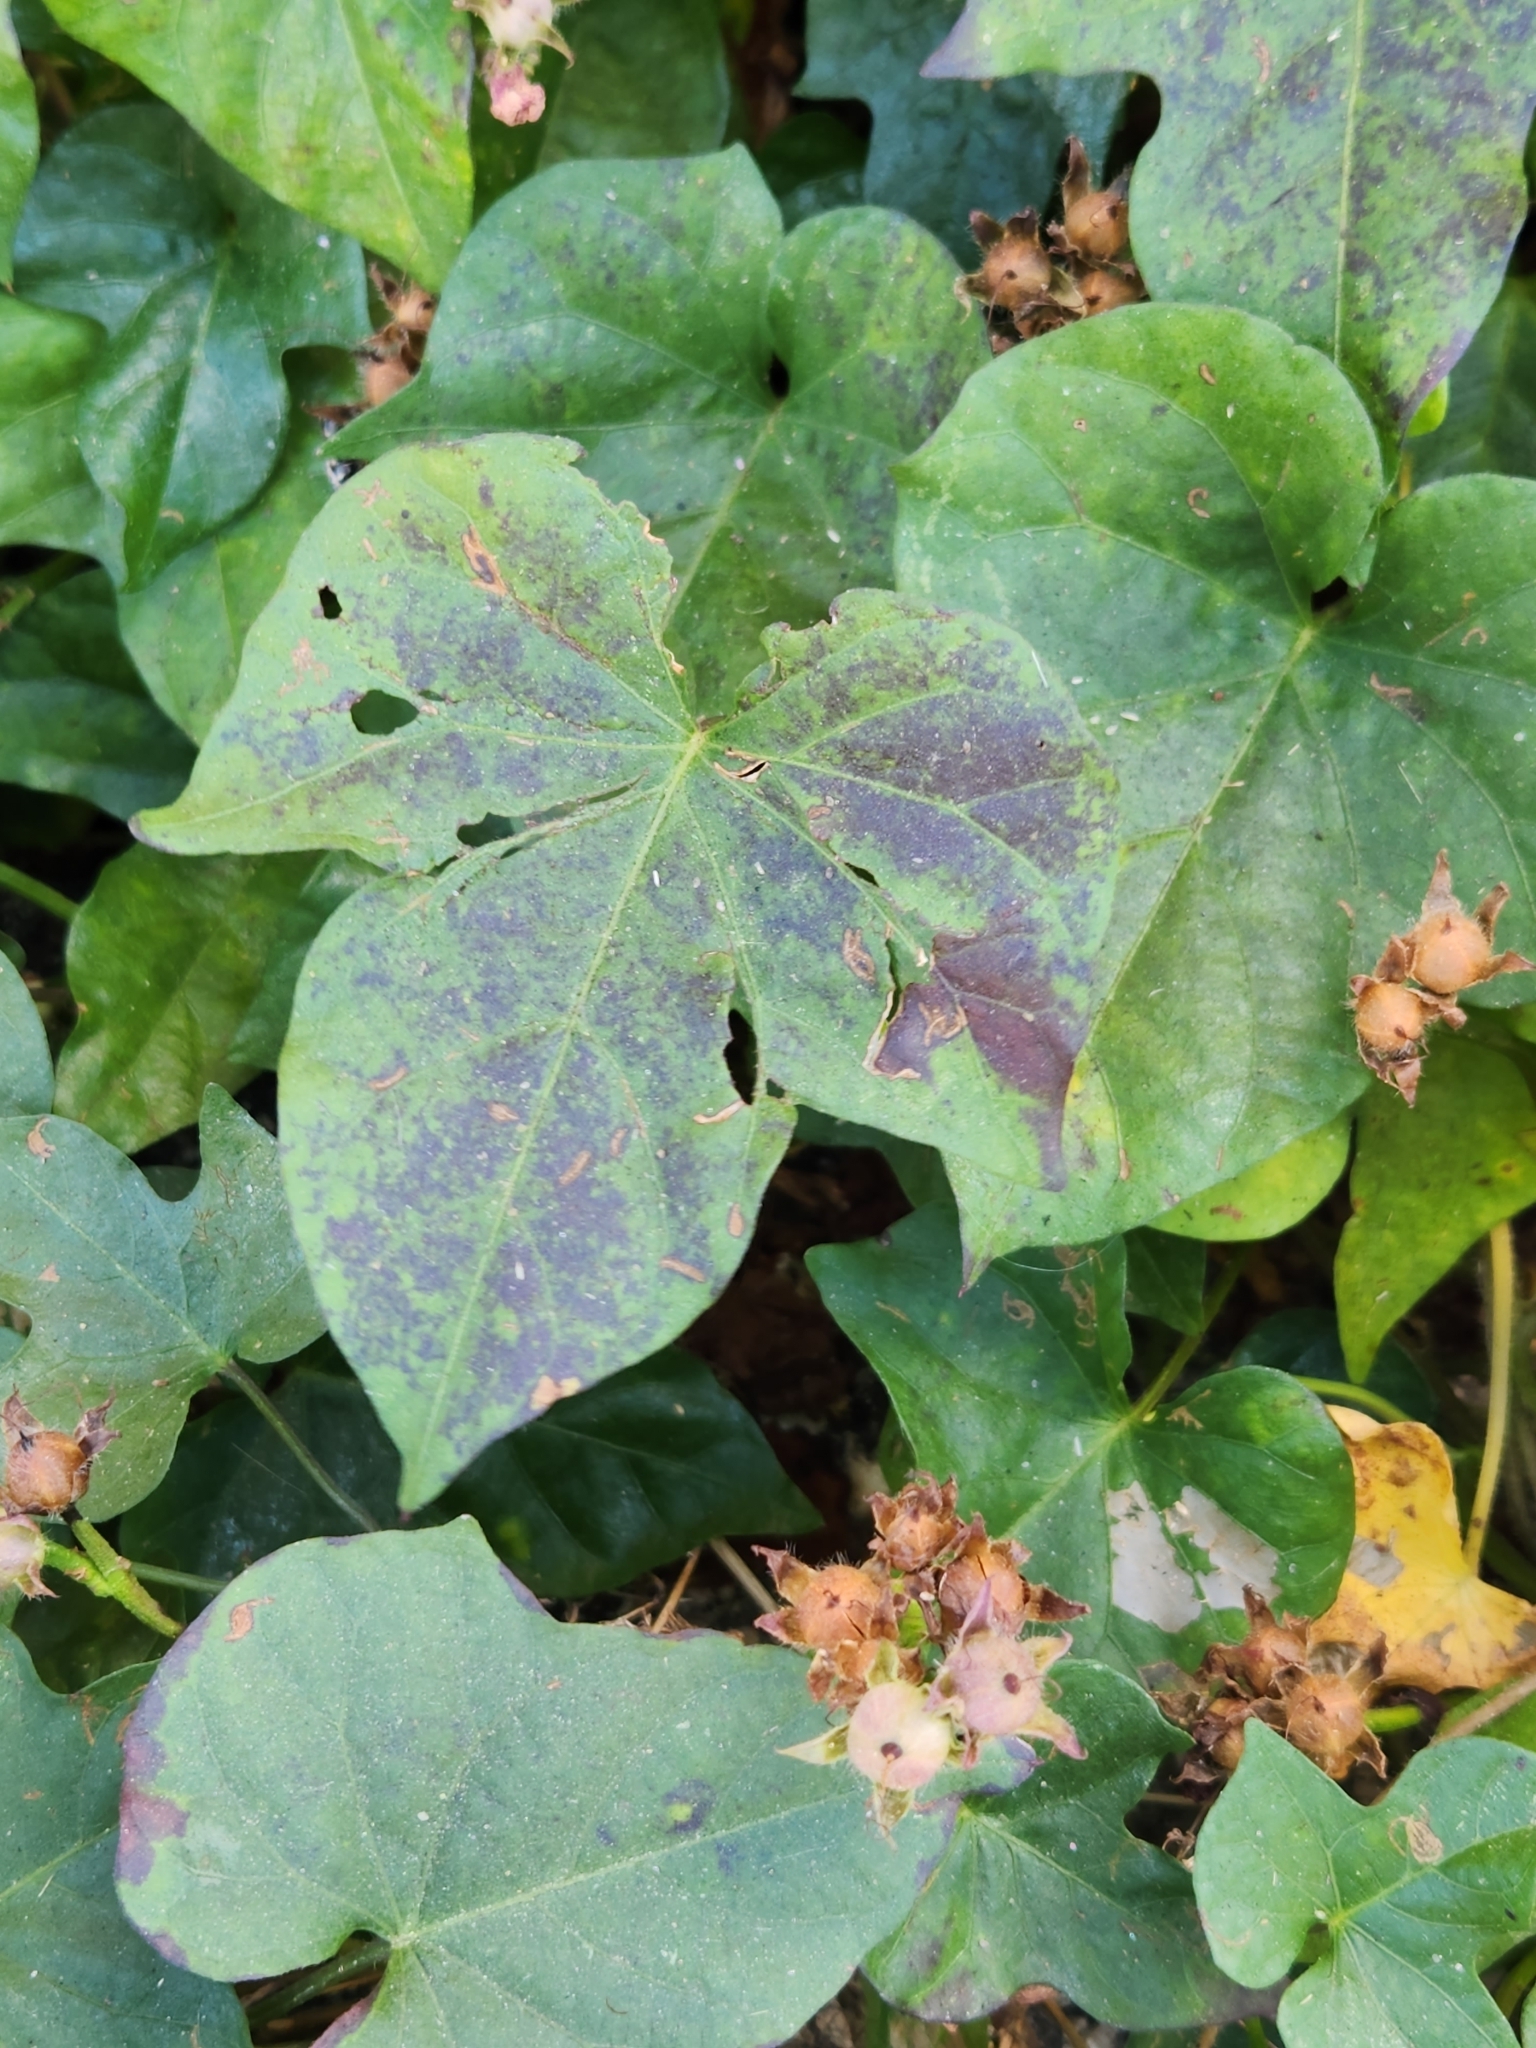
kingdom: Plantae
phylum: Tracheophyta
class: Magnoliopsida
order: Solanales
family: Convolvulaceae
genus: Ipomoea
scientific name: Ipomoea cordatotriloba
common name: Cotton morning glory
